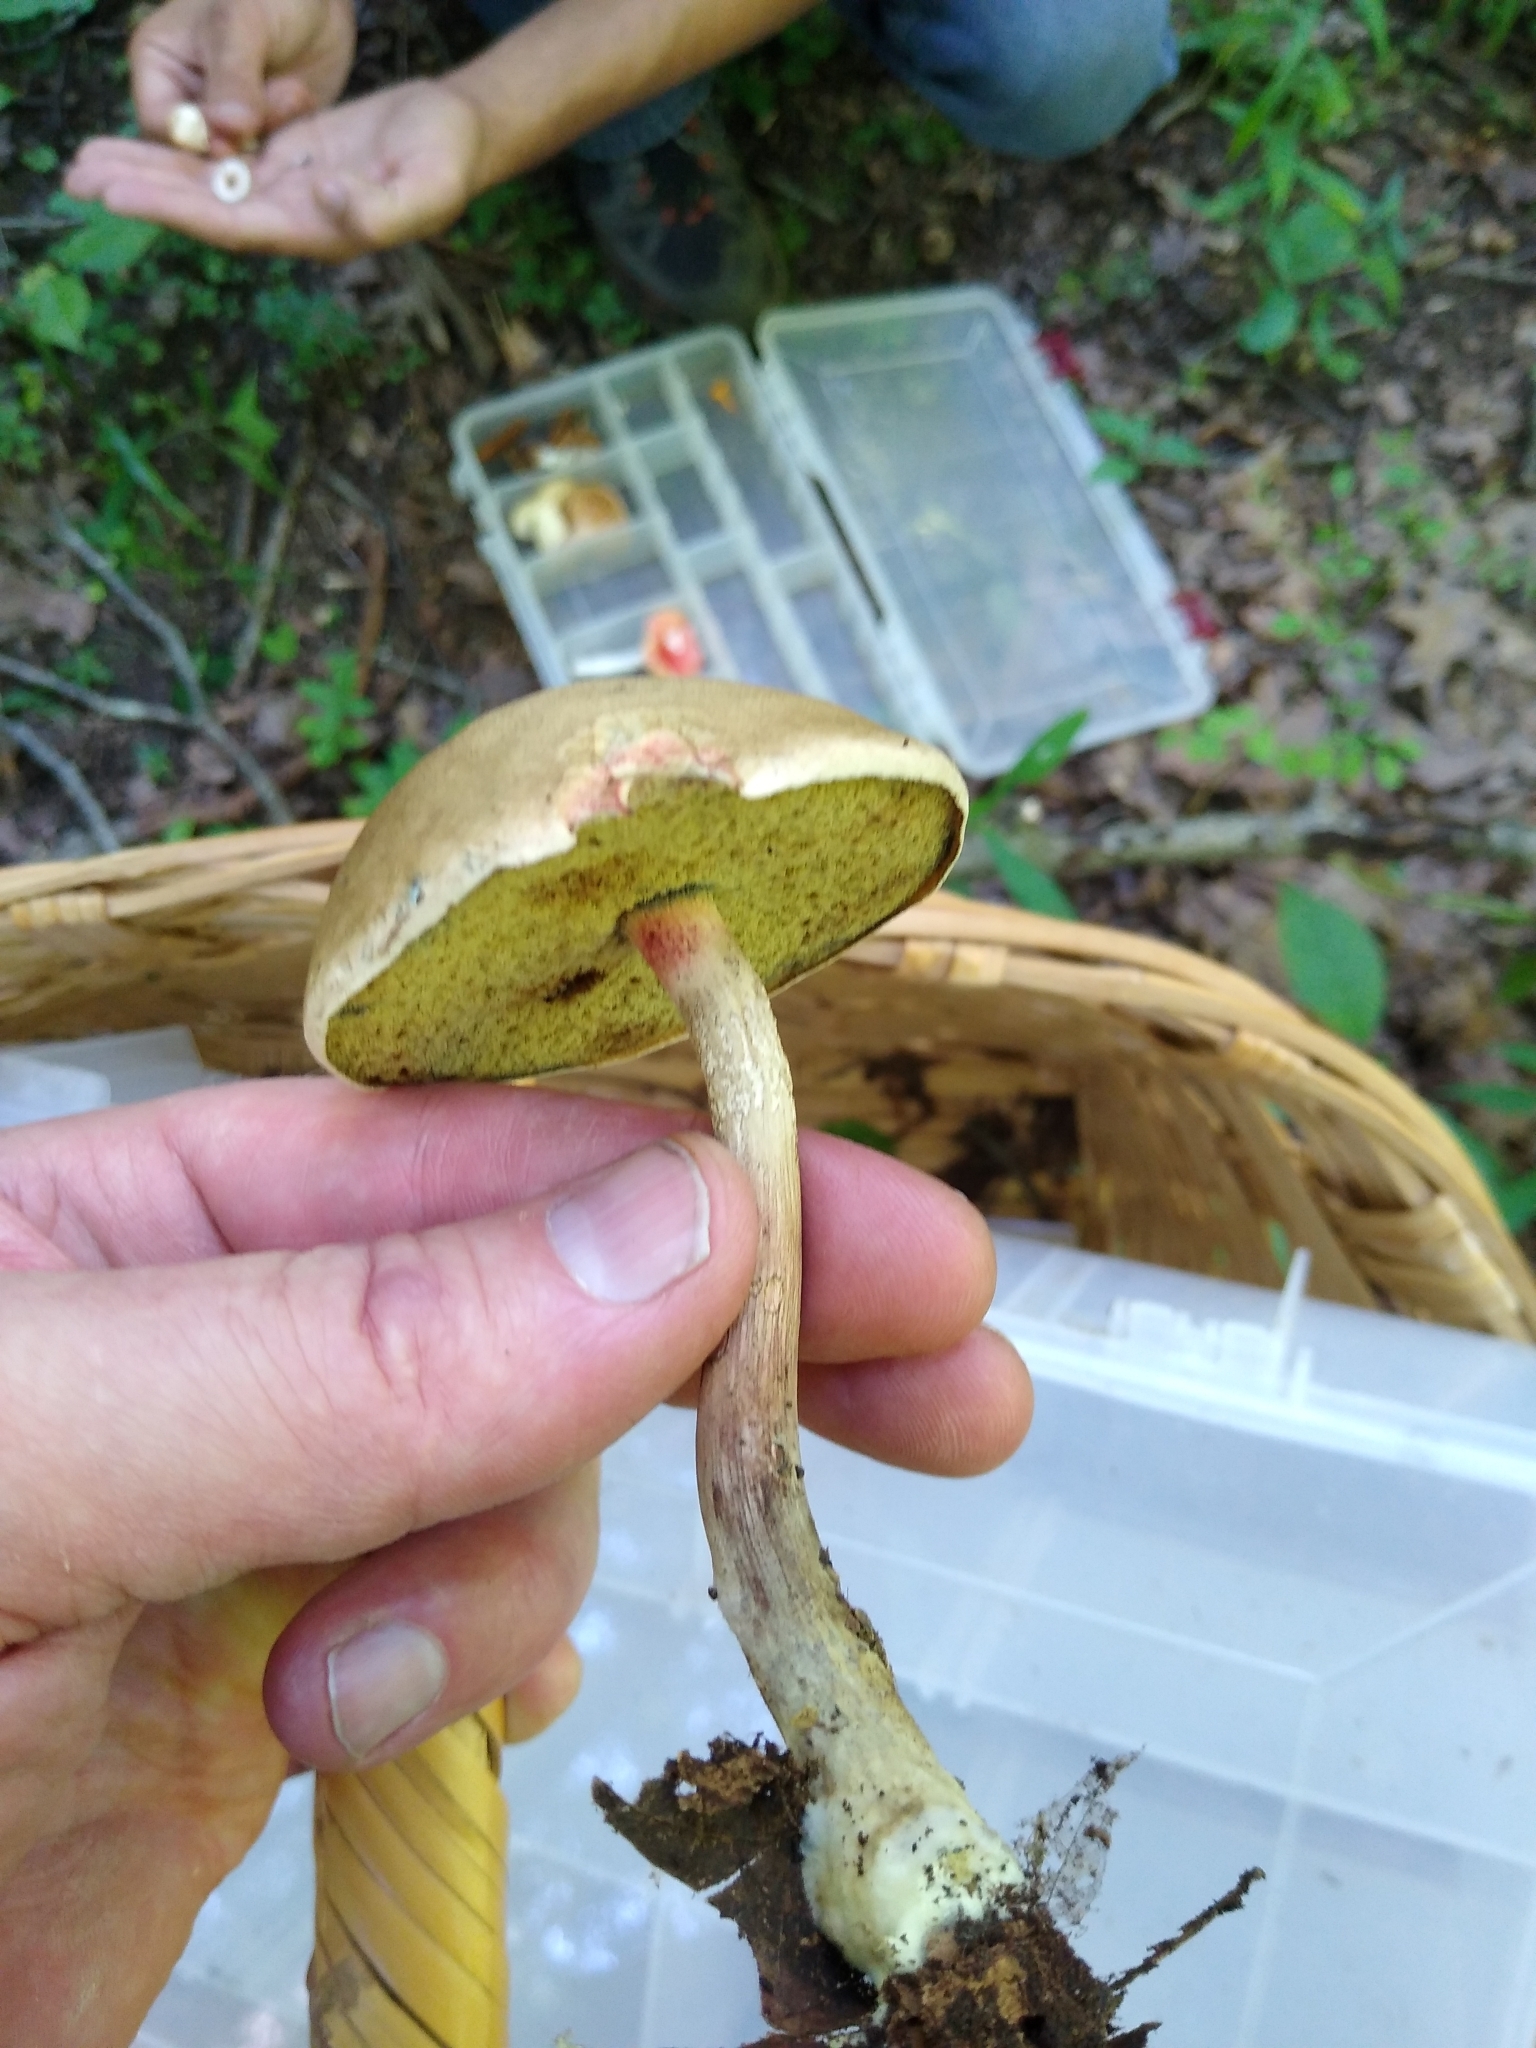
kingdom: Fungi
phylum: Basidiomycota
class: Agaricomycetes
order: Boletales
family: Boletaceae
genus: Caloboletus
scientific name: Caloboletus inedulis
